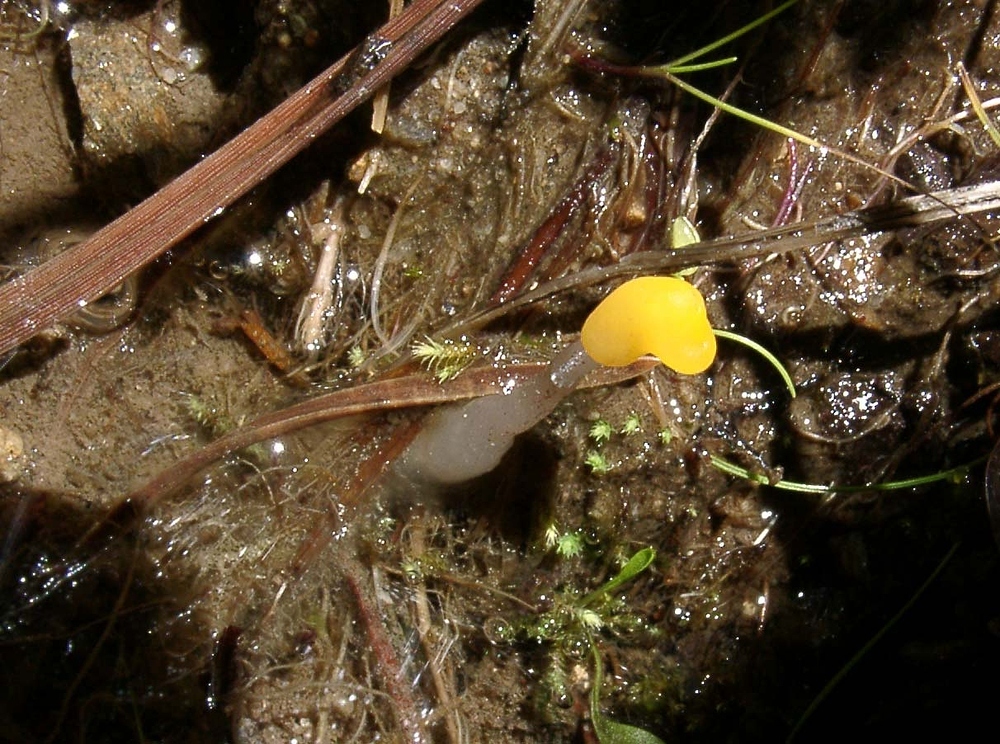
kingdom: Fungi
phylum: Ascomycota
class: Leotiomycetes
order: Helotiales
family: Cenangiaceae
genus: Mitrula
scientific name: Mitrula paludosa
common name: Bog beacon
